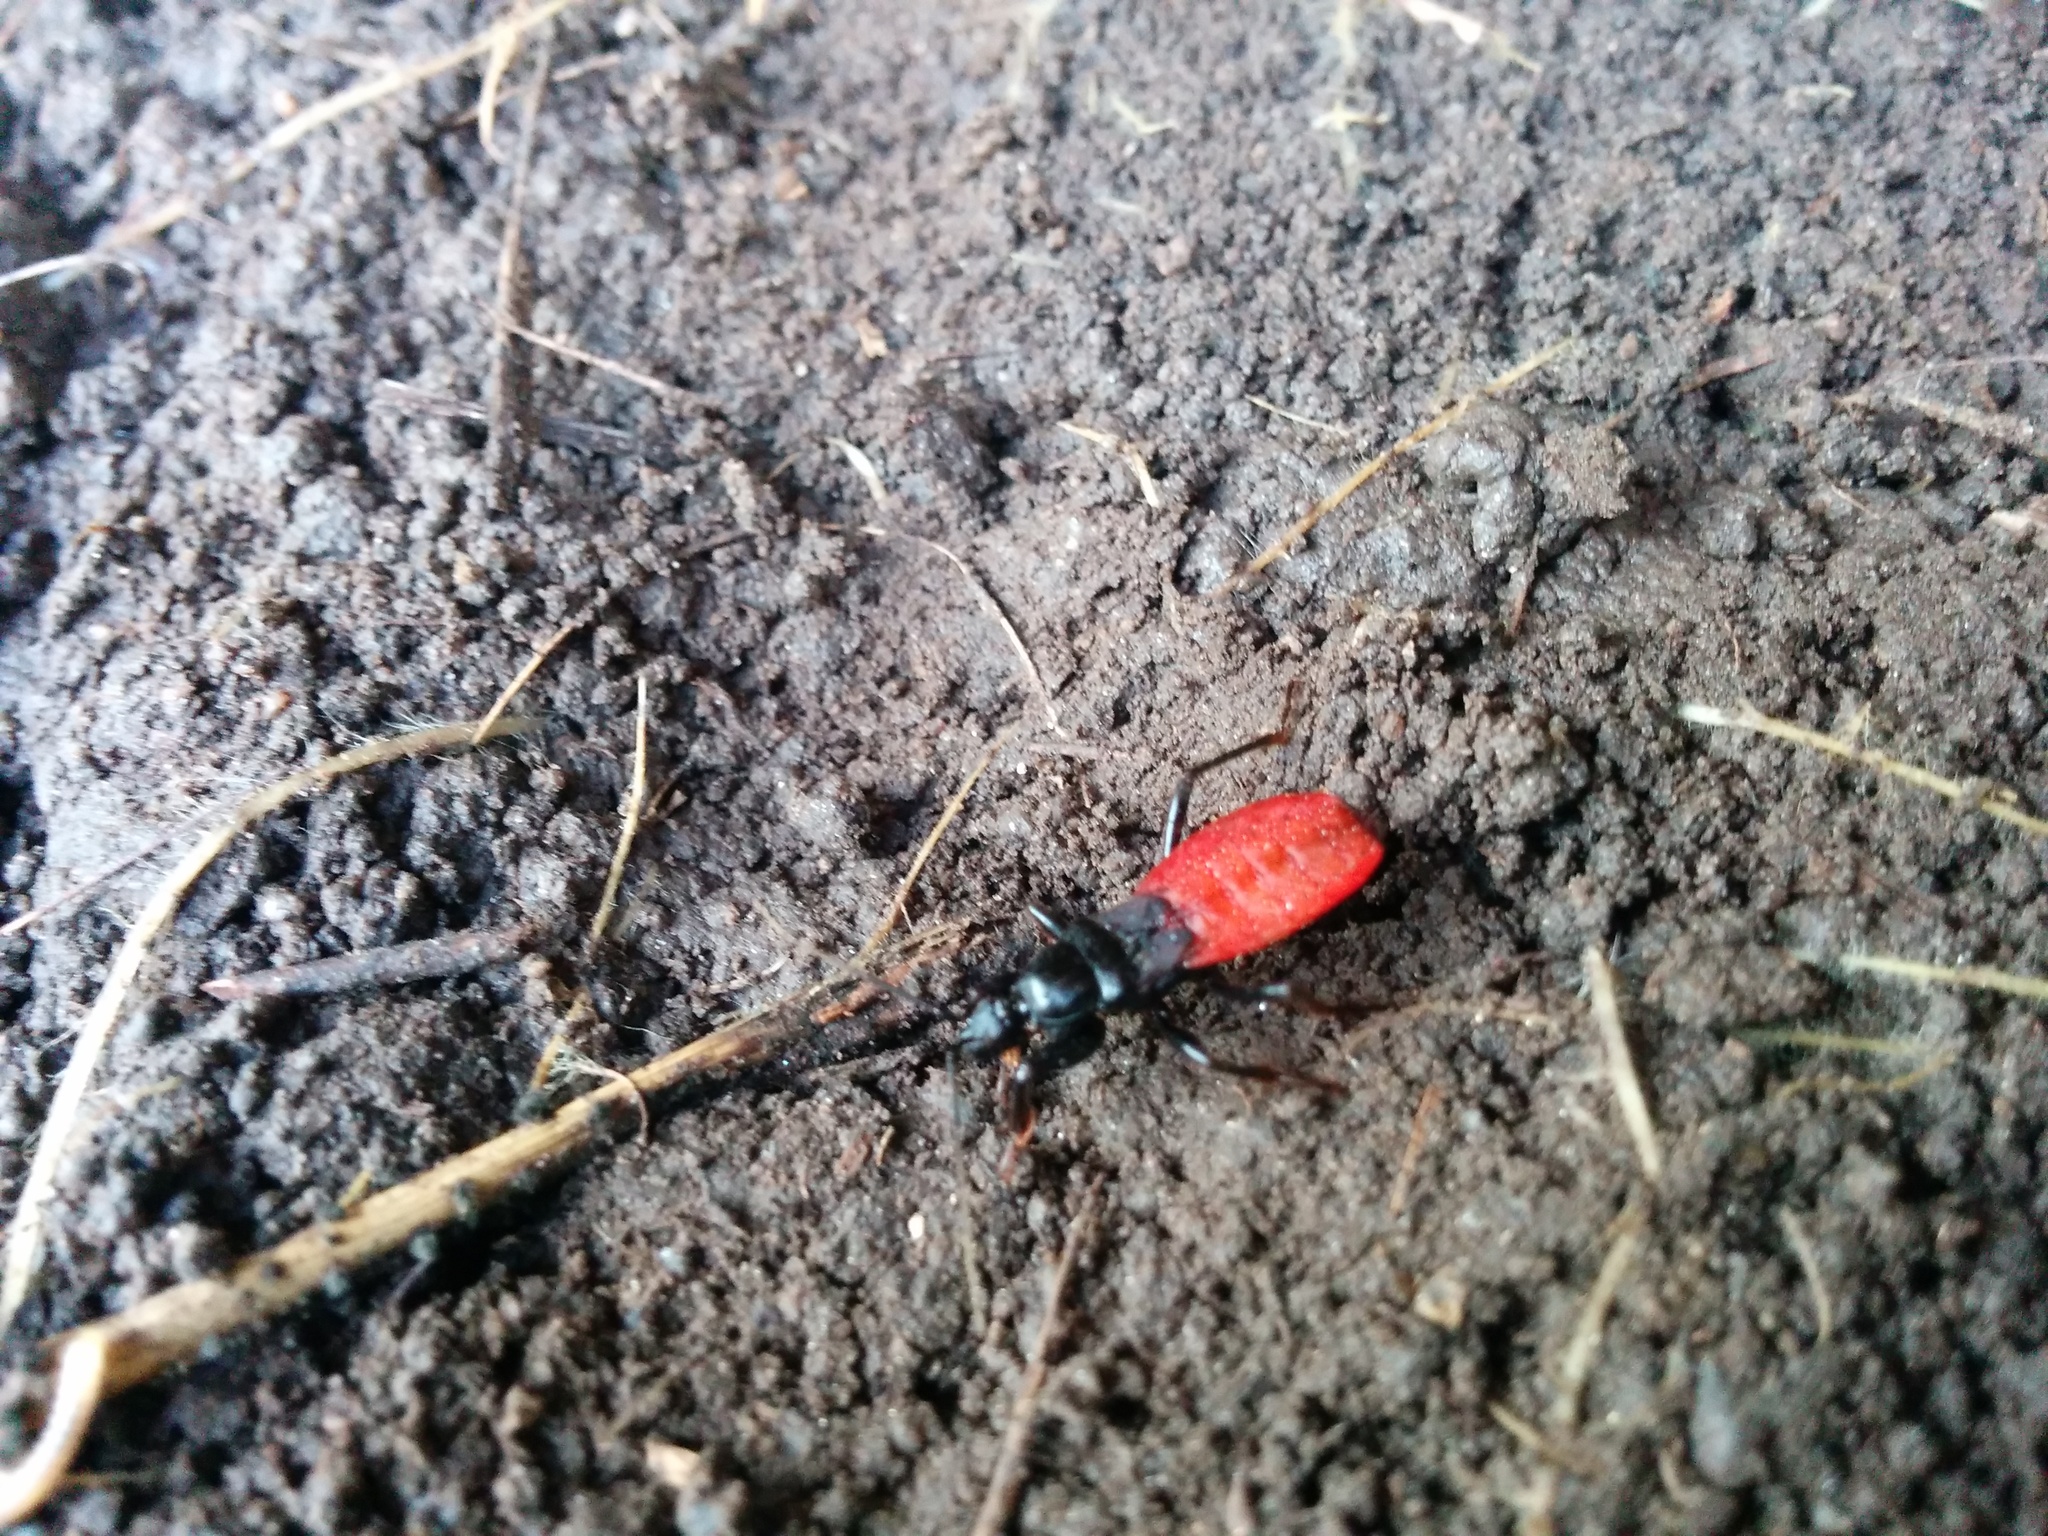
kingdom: Animalia
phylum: Arthropoda
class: Insecta
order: Hemiptera
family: Reduviidae
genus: Melanolestes
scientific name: Melanolestes picipes
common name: Assassin bug
